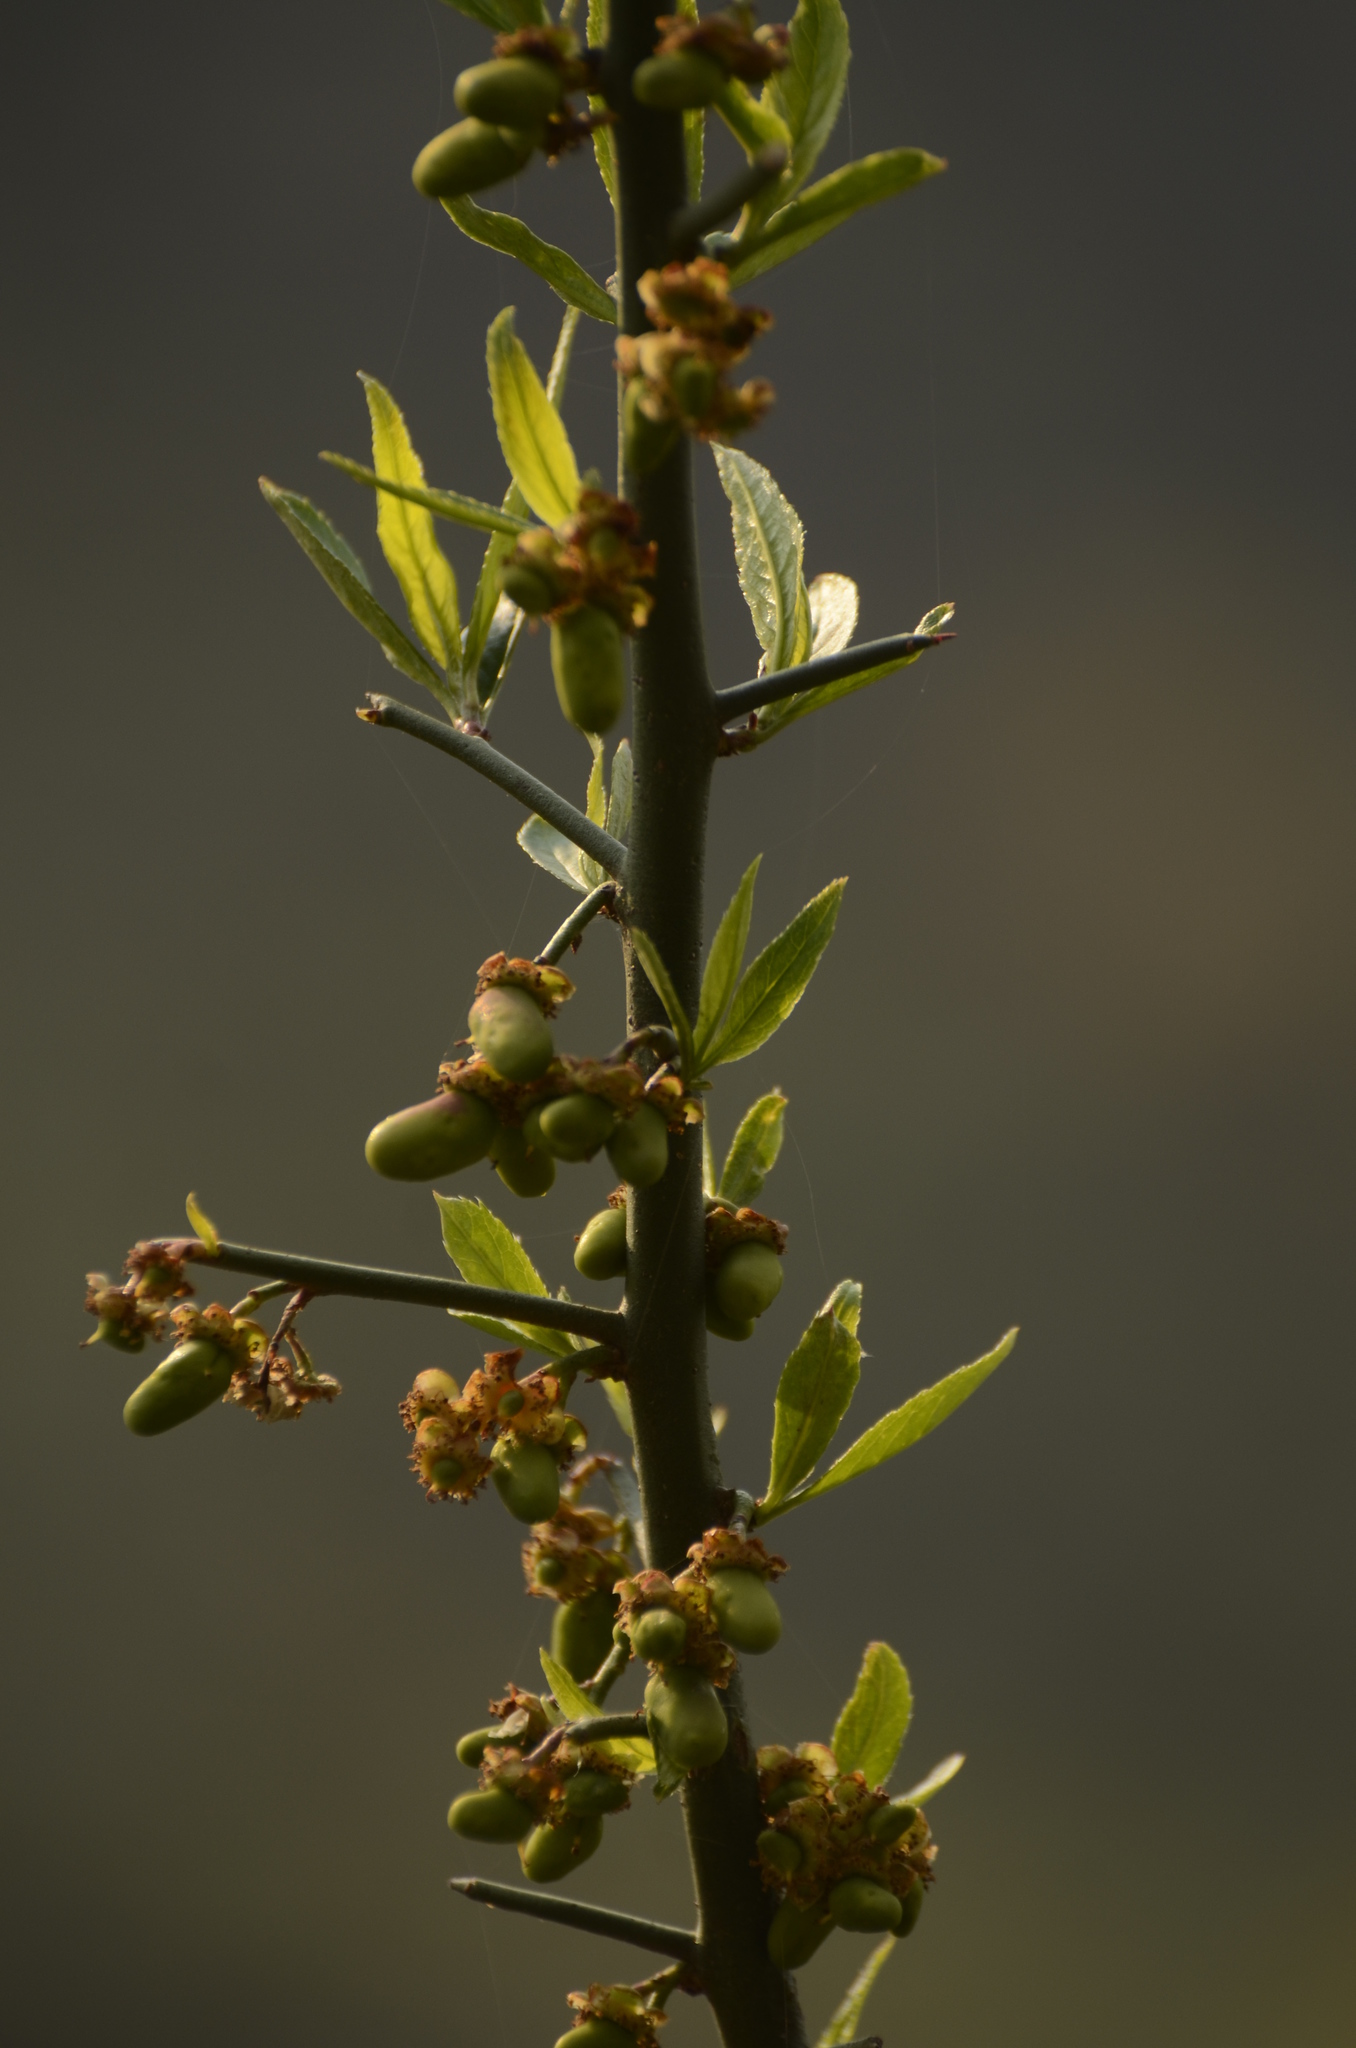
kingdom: Plantae
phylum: Tracheophyta
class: Magnoliopsida
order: Rosales
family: Rosaceae
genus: Prinsepia
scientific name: Prinsepia utilis
